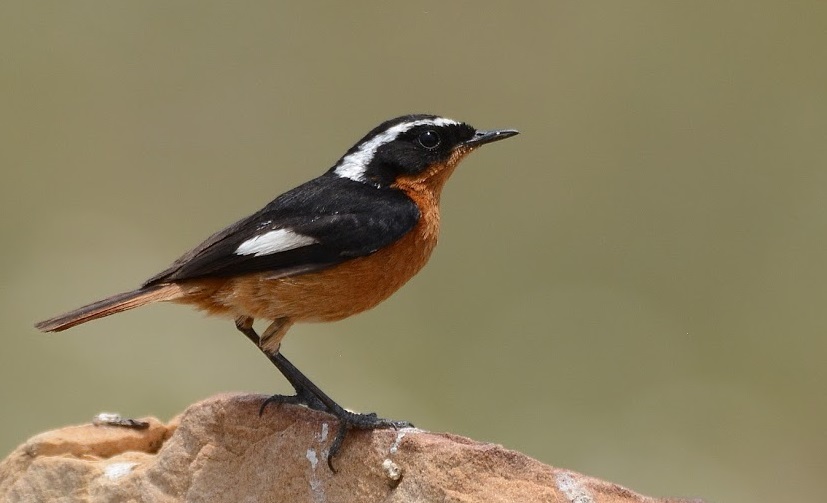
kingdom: Animalia
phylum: Chordata
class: Aves
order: Passeriformes
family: Muscicapidae
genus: Phoenicurus
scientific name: Phoenicurus moussieri
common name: Moussier's redstart
